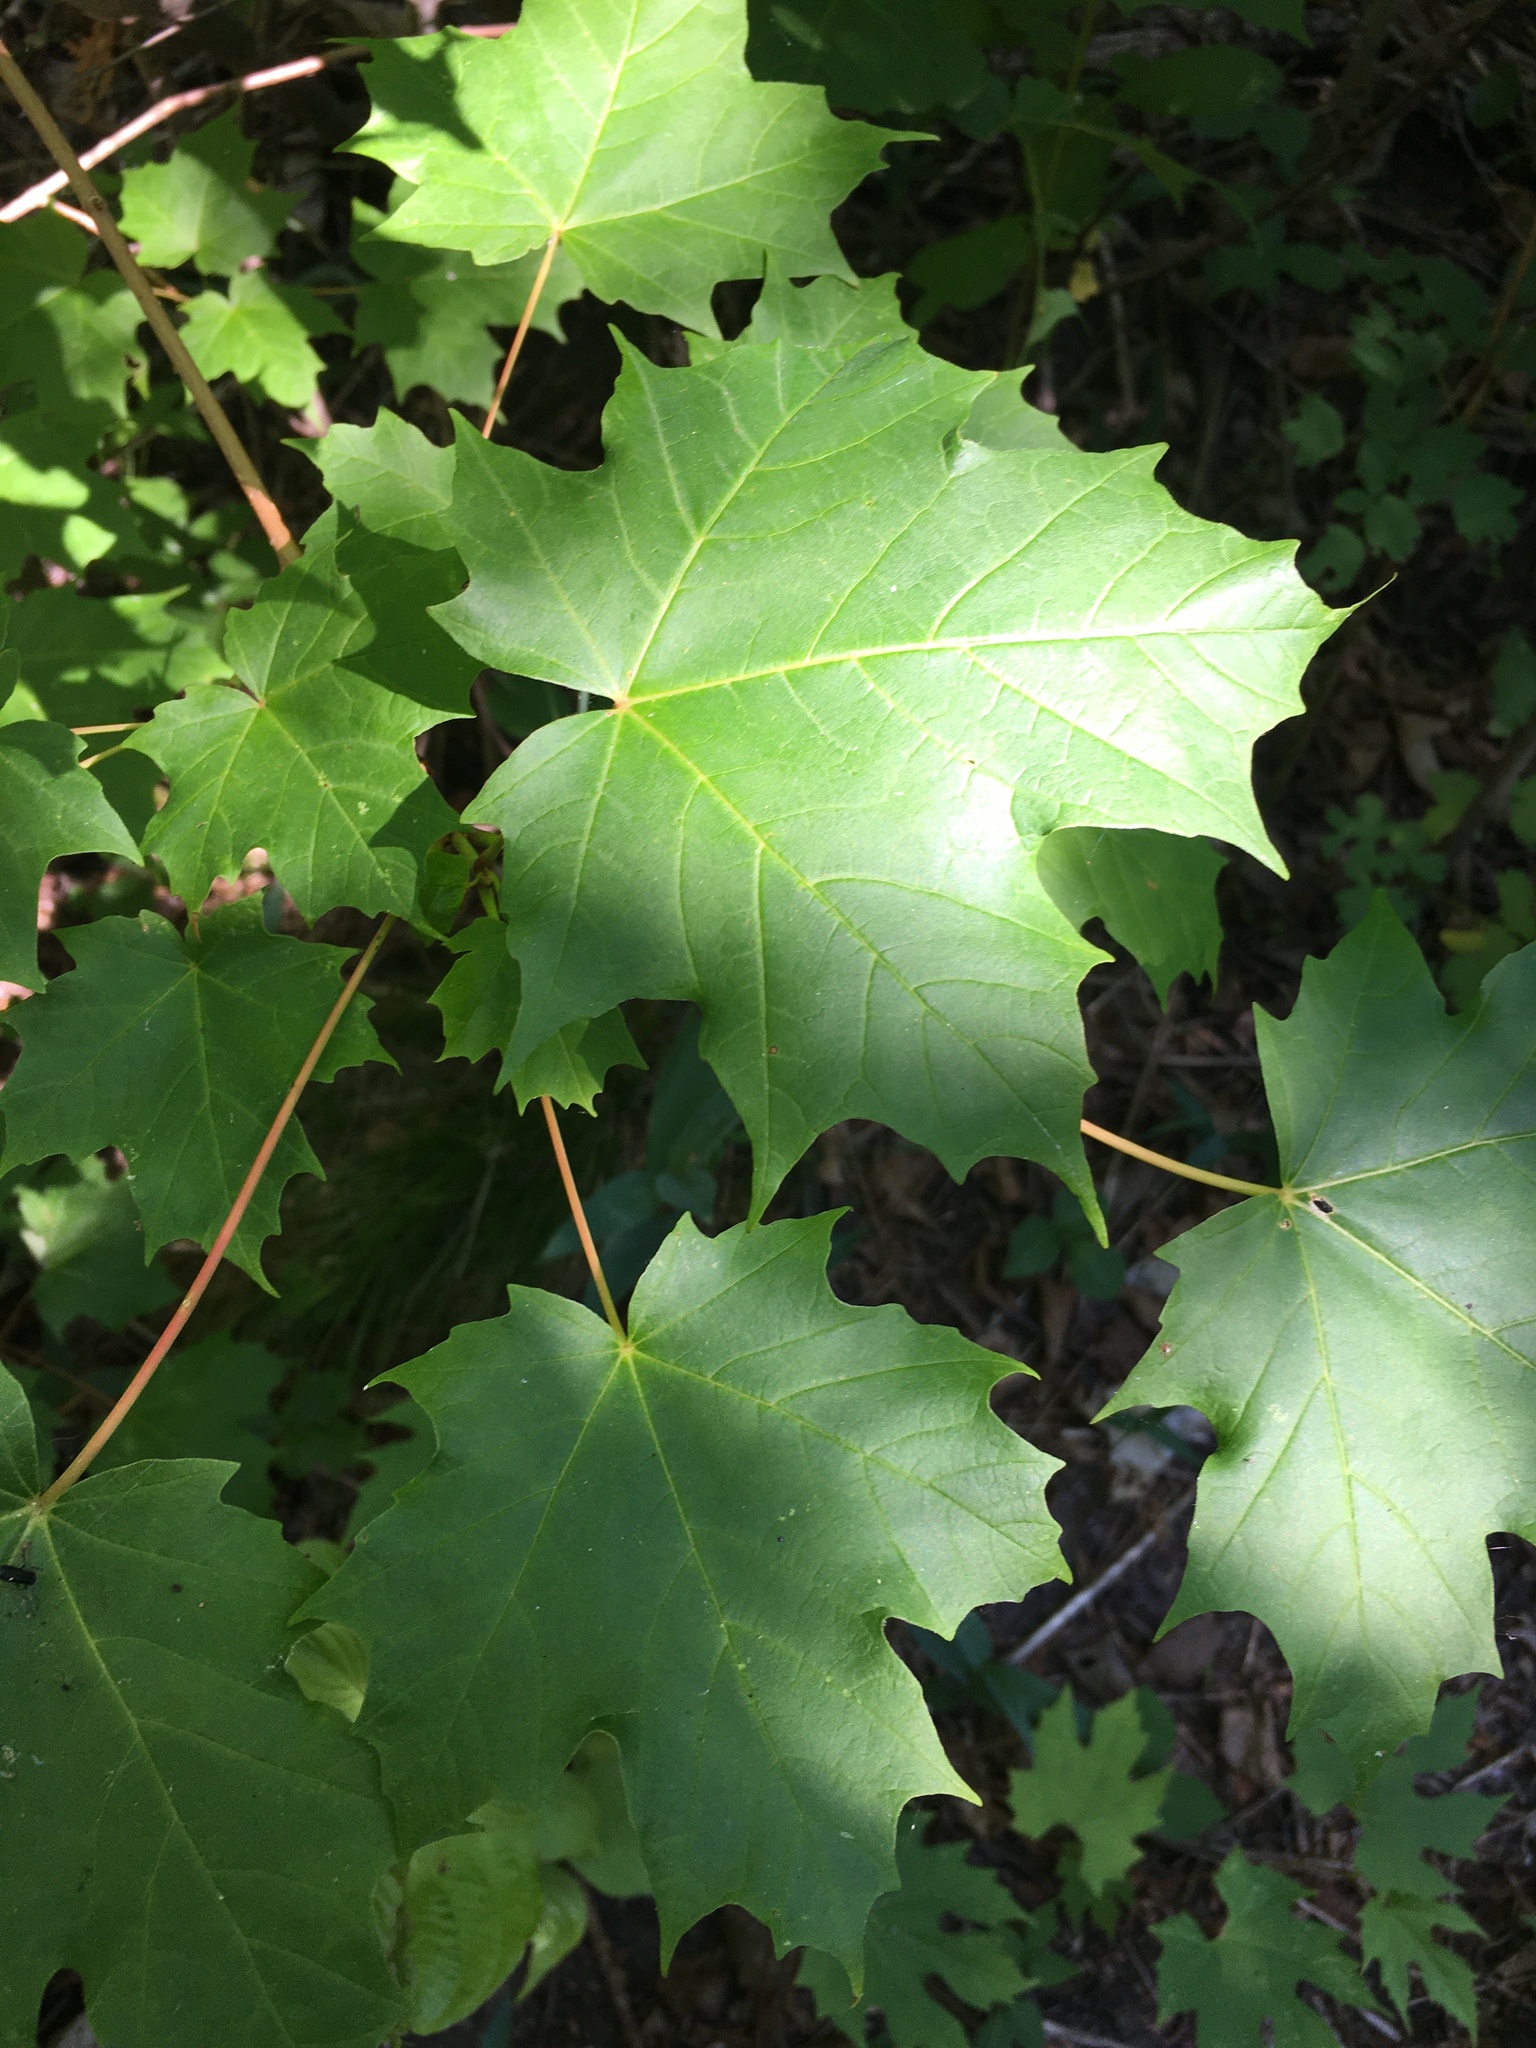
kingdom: Plantae
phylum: Tracheophyta
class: Magnoliopsida
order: Sapindales
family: Sapindaceae
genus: Acer
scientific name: Acer saccharum
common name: Sugar maple
